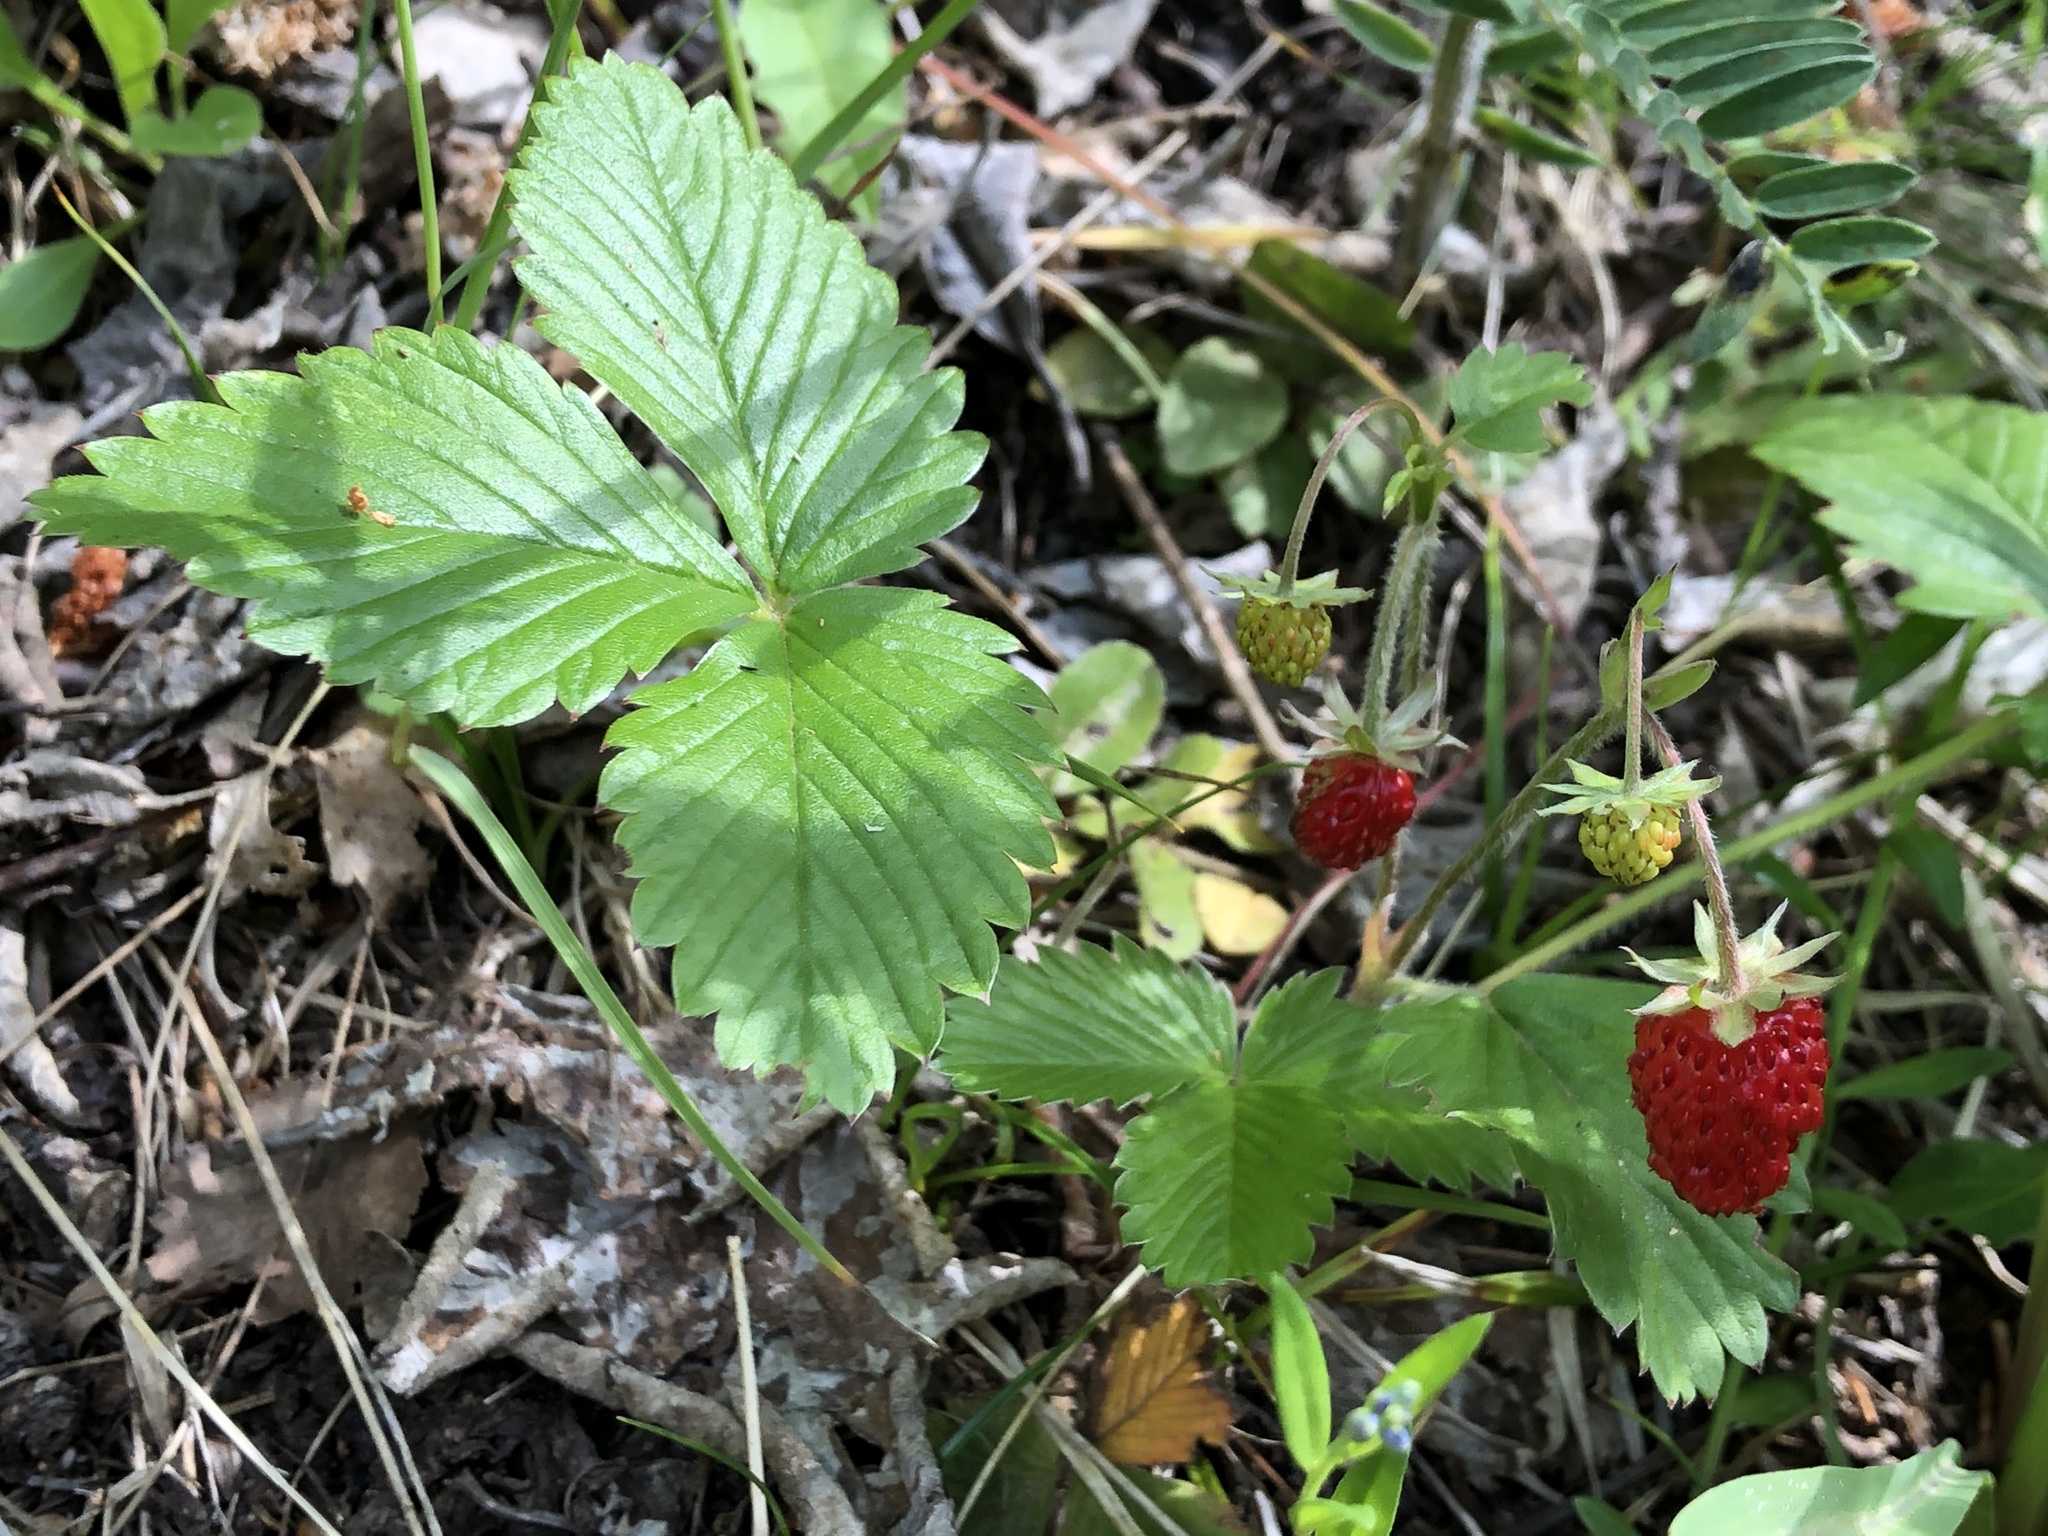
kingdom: Plantae
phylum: Tracheophyta
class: Magnoliopsida
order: Rosales
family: Rosaceae
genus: Fragaria
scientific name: Fragaria vesca
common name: Wild strawberry
